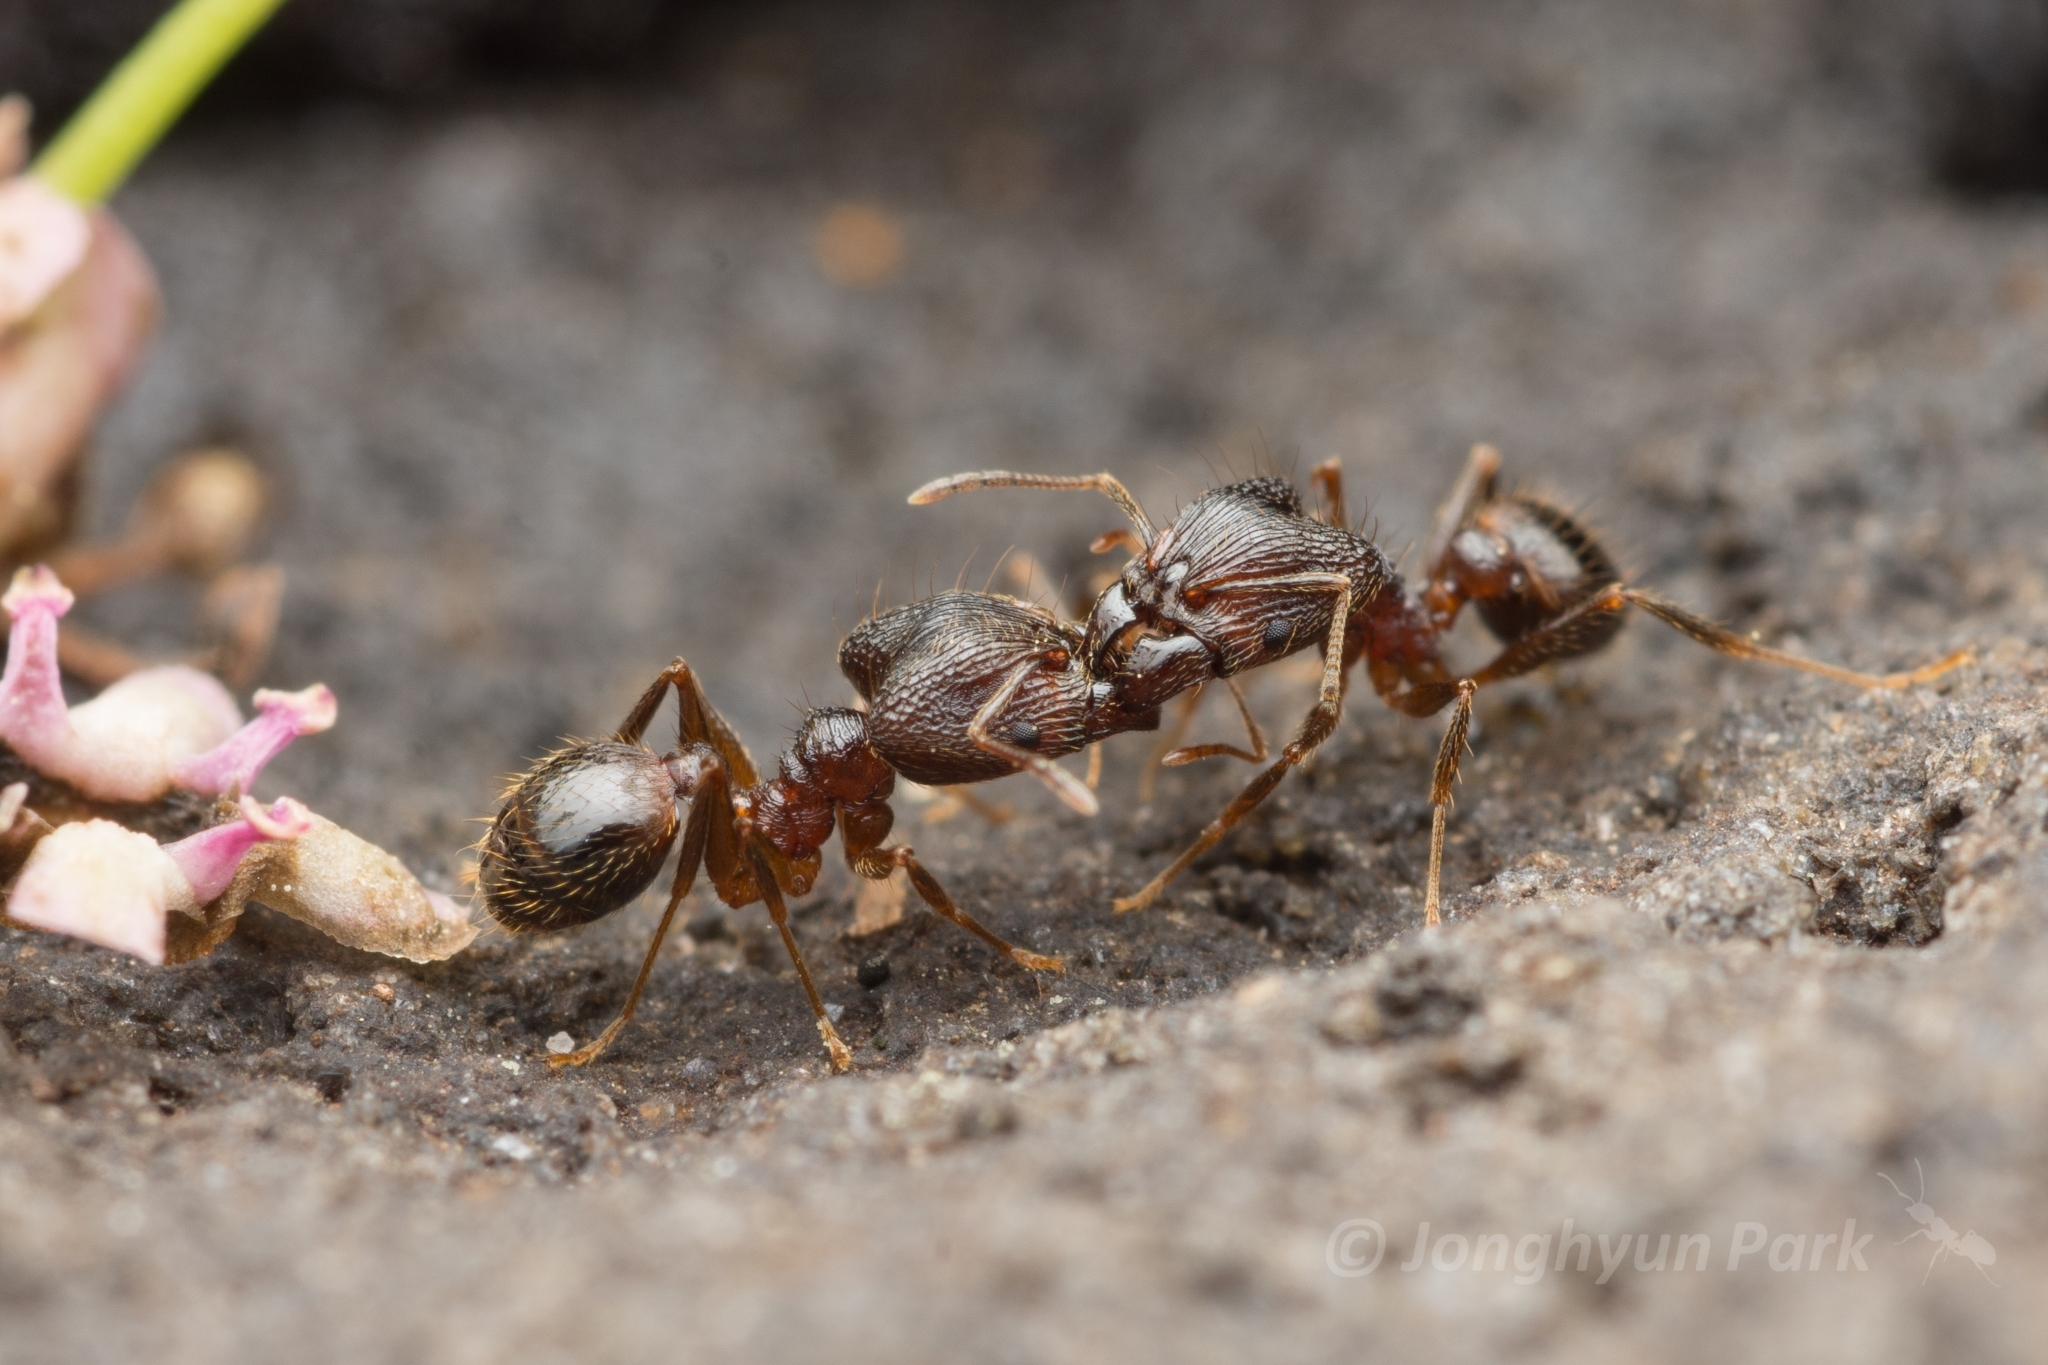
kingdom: Animalia
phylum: Arthropoda
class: Insecta
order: Hymenoptera
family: Formicidae
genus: Pheidole
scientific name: Pheidole noda
